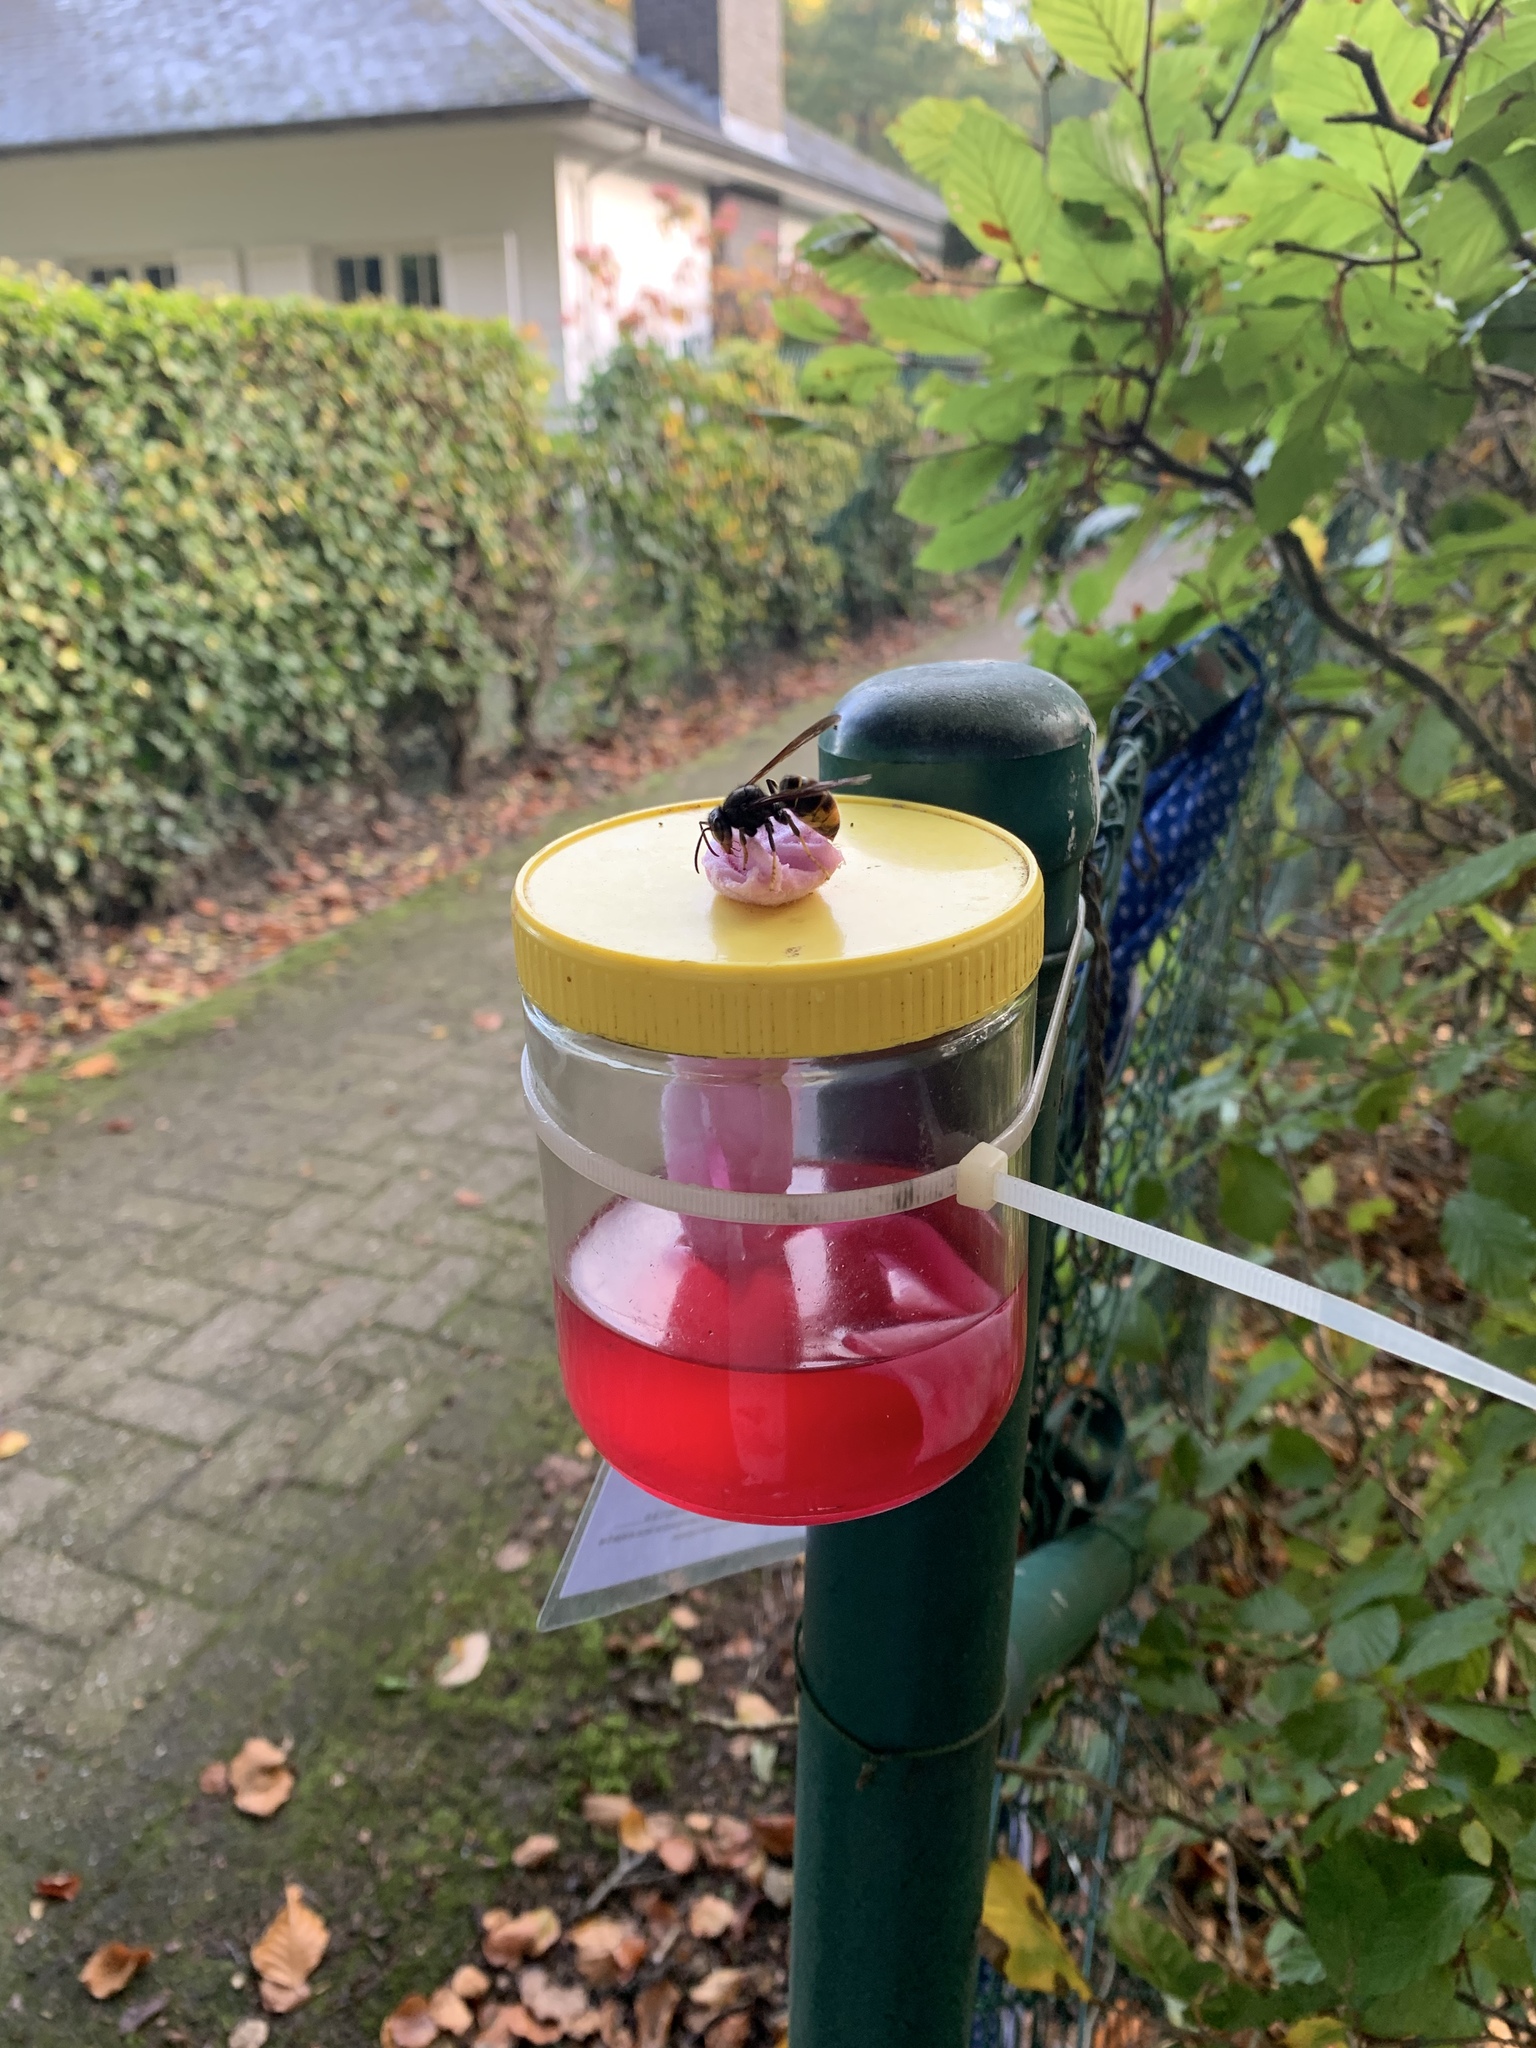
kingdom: Animalia
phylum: Arthropoda
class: Insecta
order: Hymenoptera
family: Vespidae
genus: Vespa
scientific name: Vespa velutina
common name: Asian hornet
